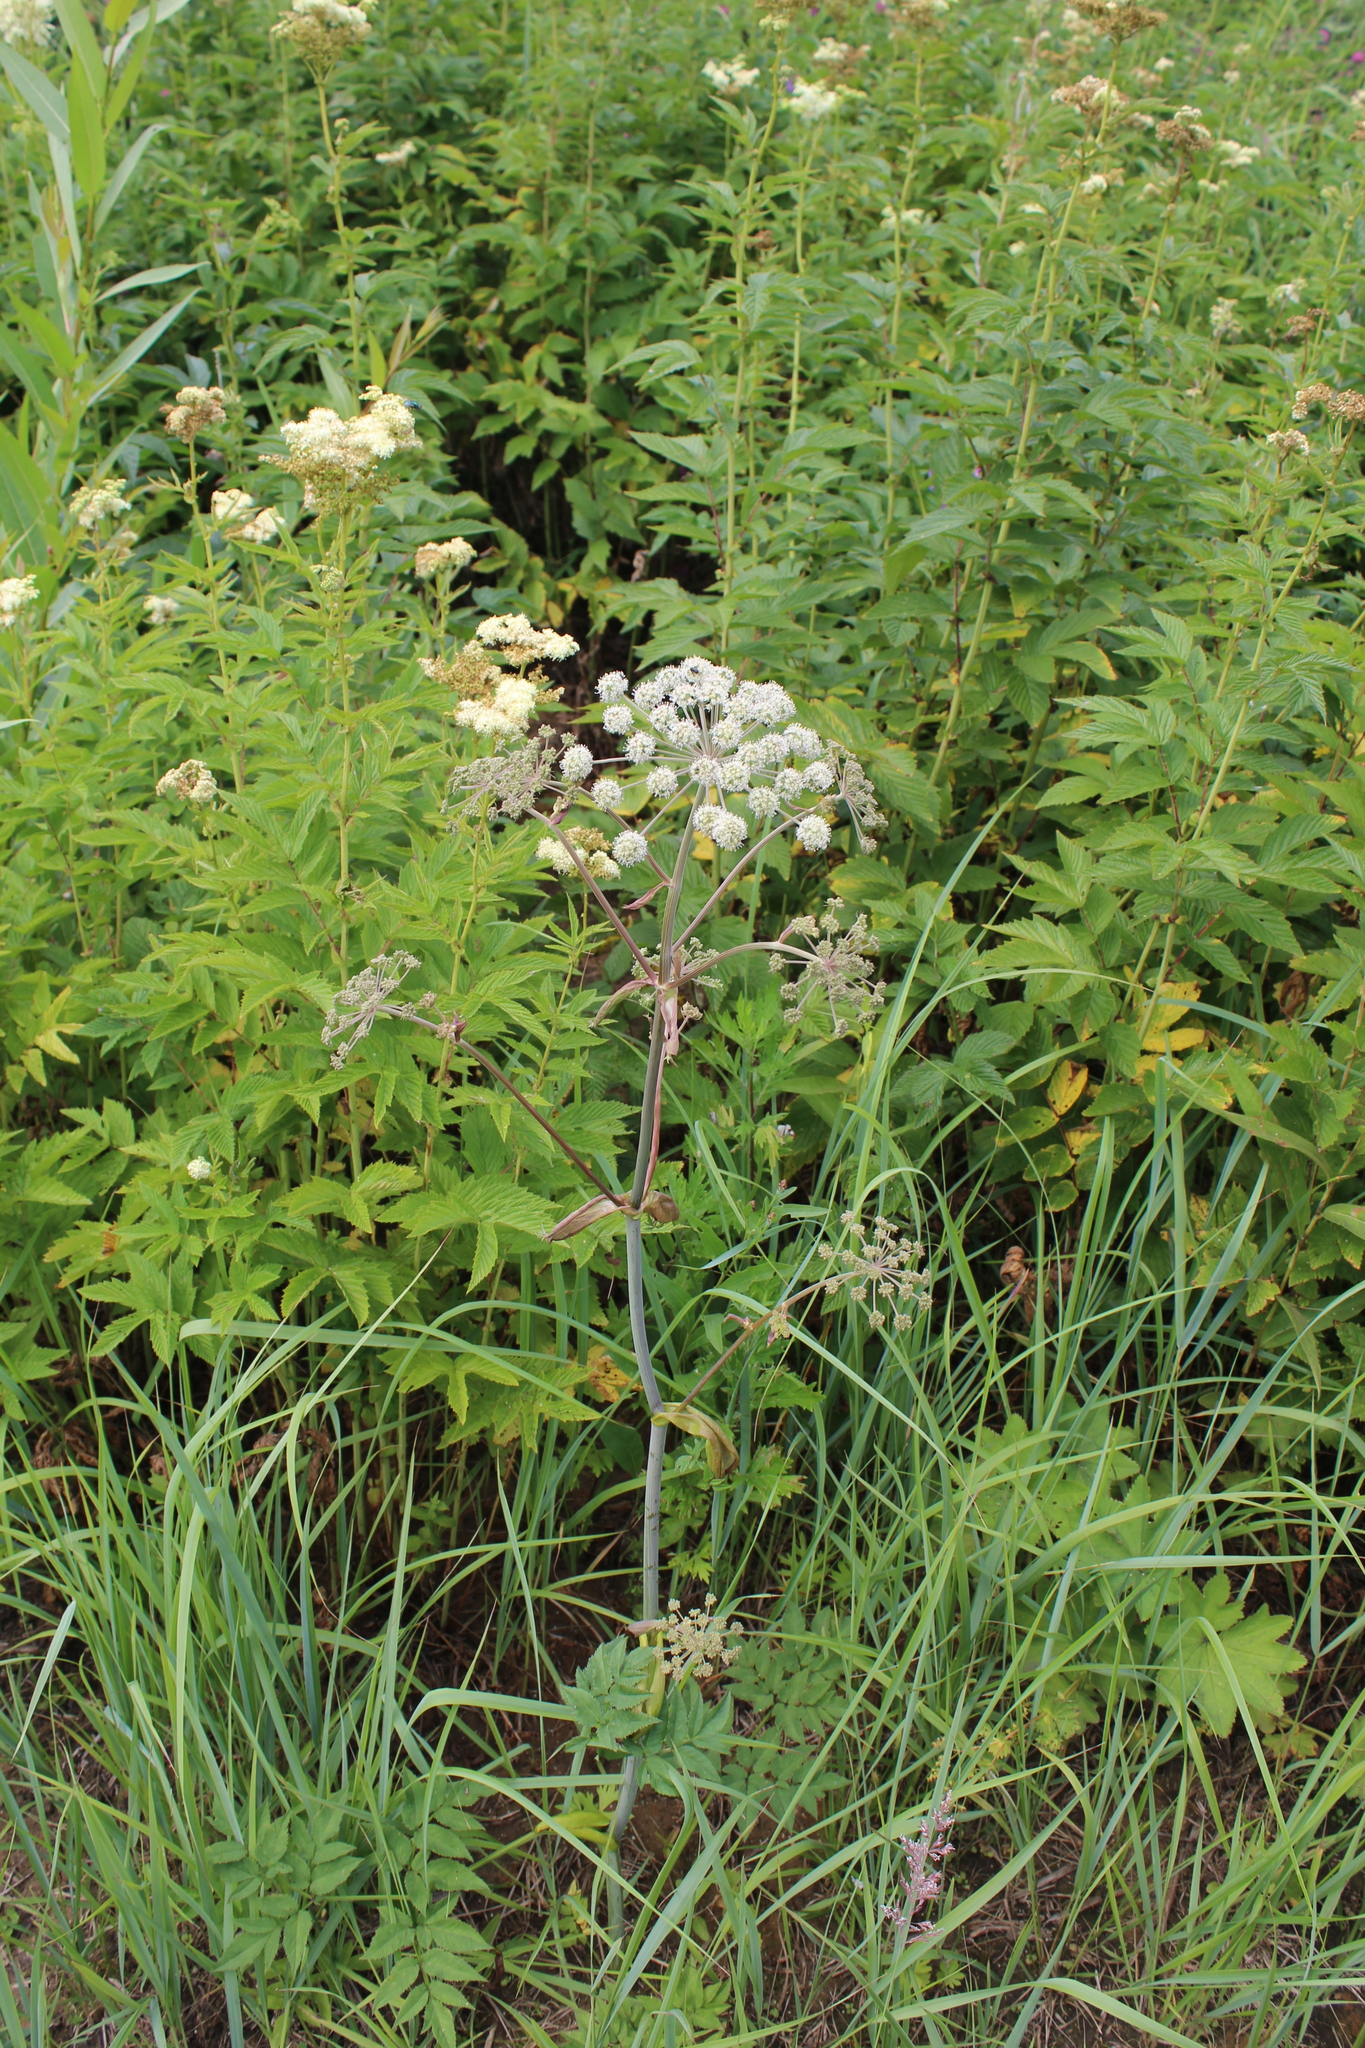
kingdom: Plantae
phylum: Tracheophyta
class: Magnoliopsida
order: Apiales
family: Apiaceae
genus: Angelica
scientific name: Angelica sylvestris
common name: Wild angelica
